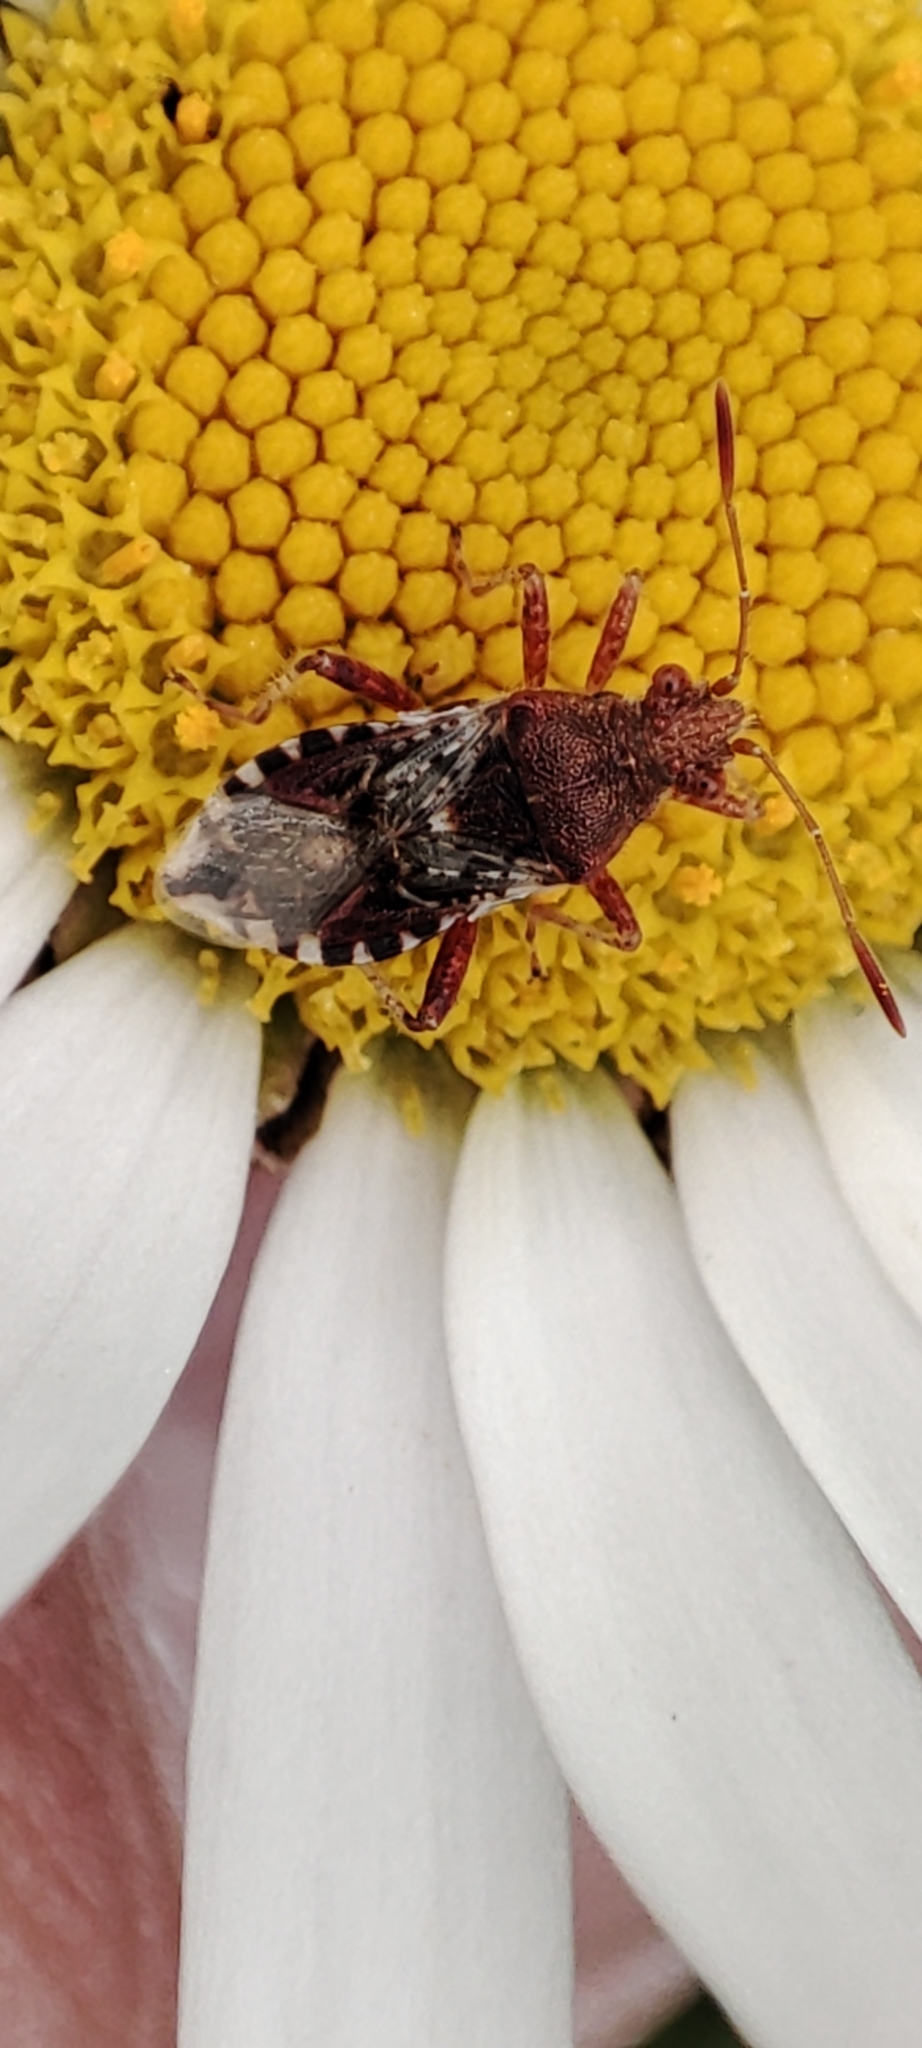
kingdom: Animalia
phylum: Arthropoda
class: Insecta
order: Hemiptera
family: Rhopalidae
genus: Rhopalus
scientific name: Rhopalus subrufus
